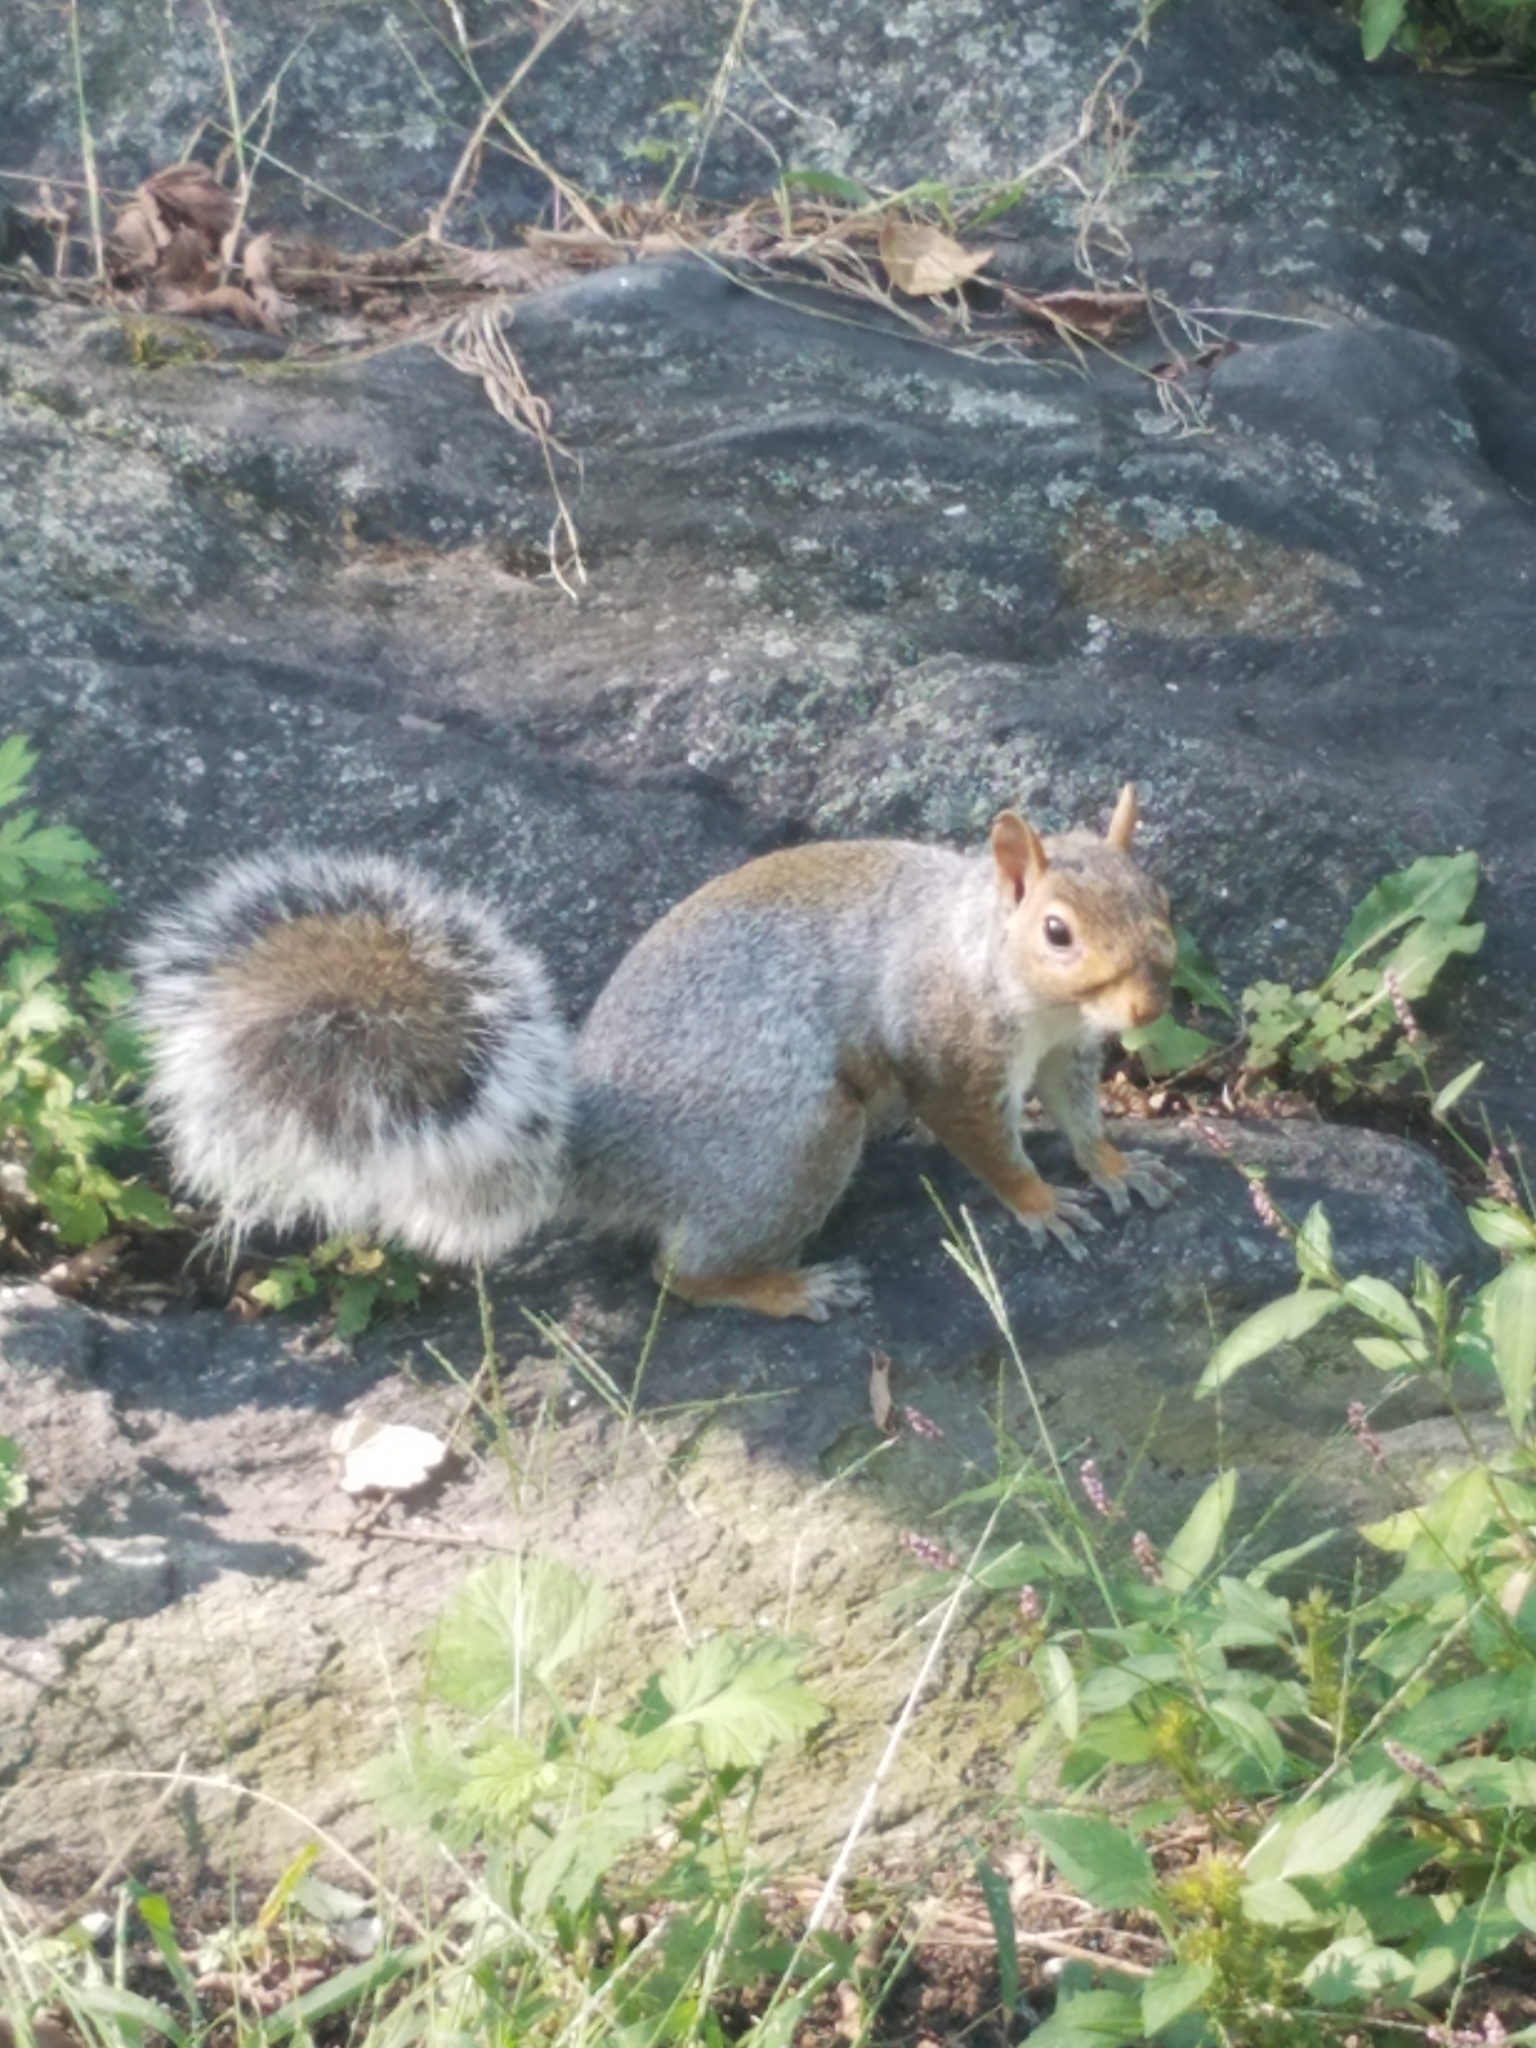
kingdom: Animalia
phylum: Chordata
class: Mammalia
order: Rodentia
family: Sciuridae
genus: Sciurus
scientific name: Sciurus carolinensis
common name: Eastern gray squirrel
